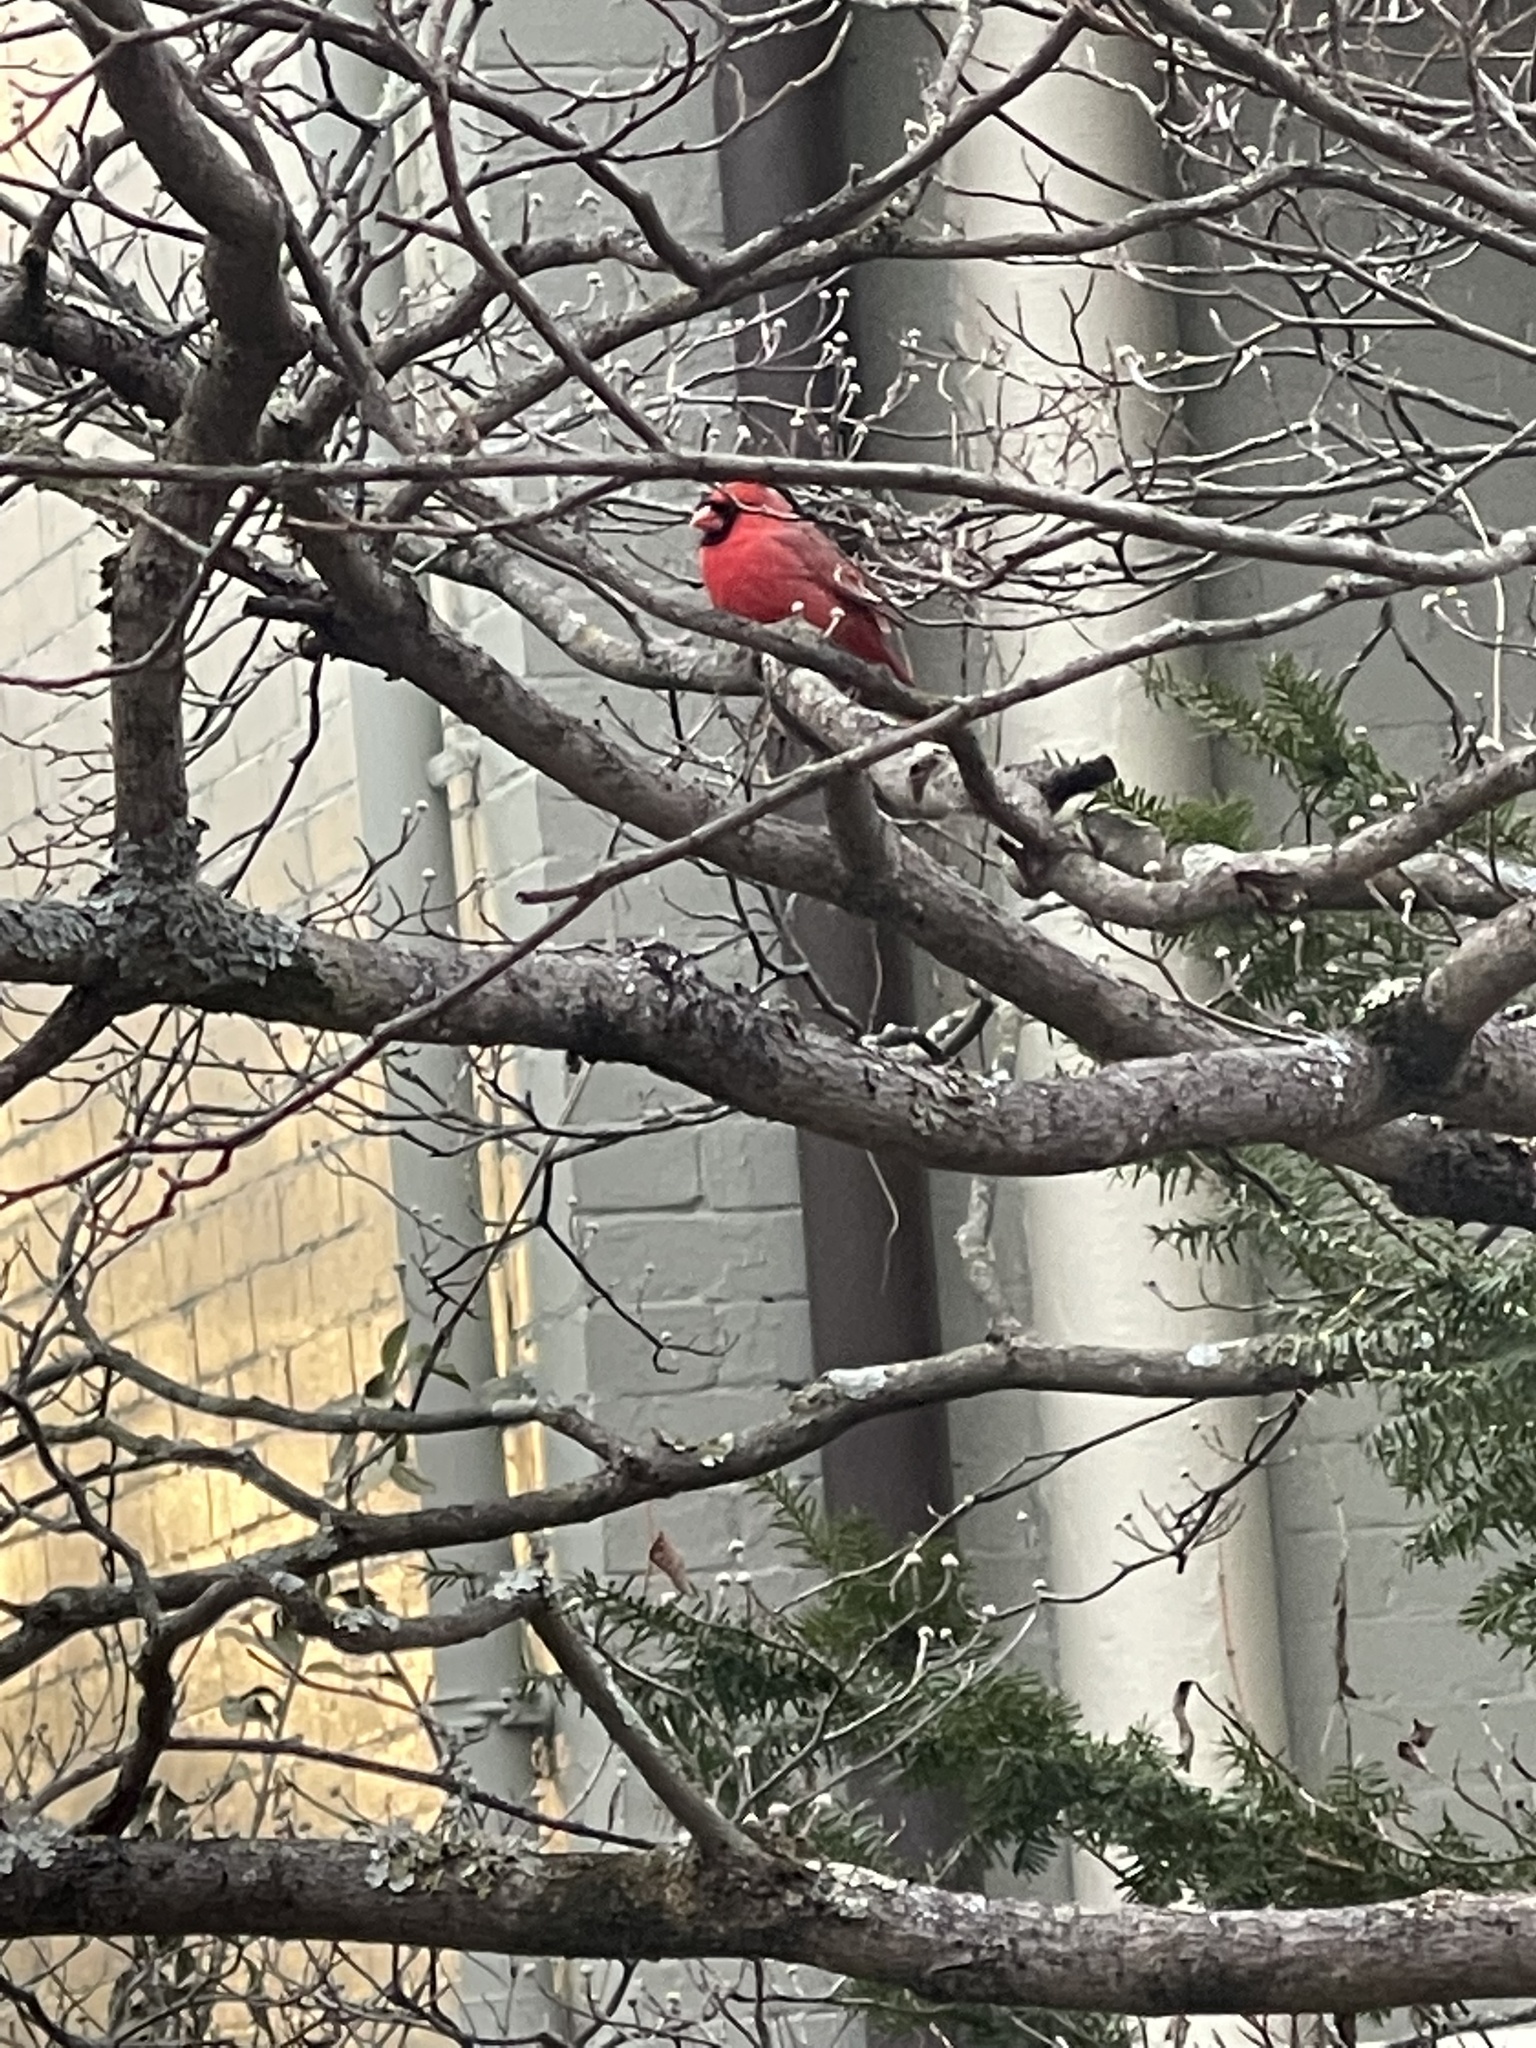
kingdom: Animalia
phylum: Chordata
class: Aves
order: Passeriformes
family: Cardinalidae
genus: Cardinalis
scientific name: Cardinalis cardinalis
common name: Northern cardinal
